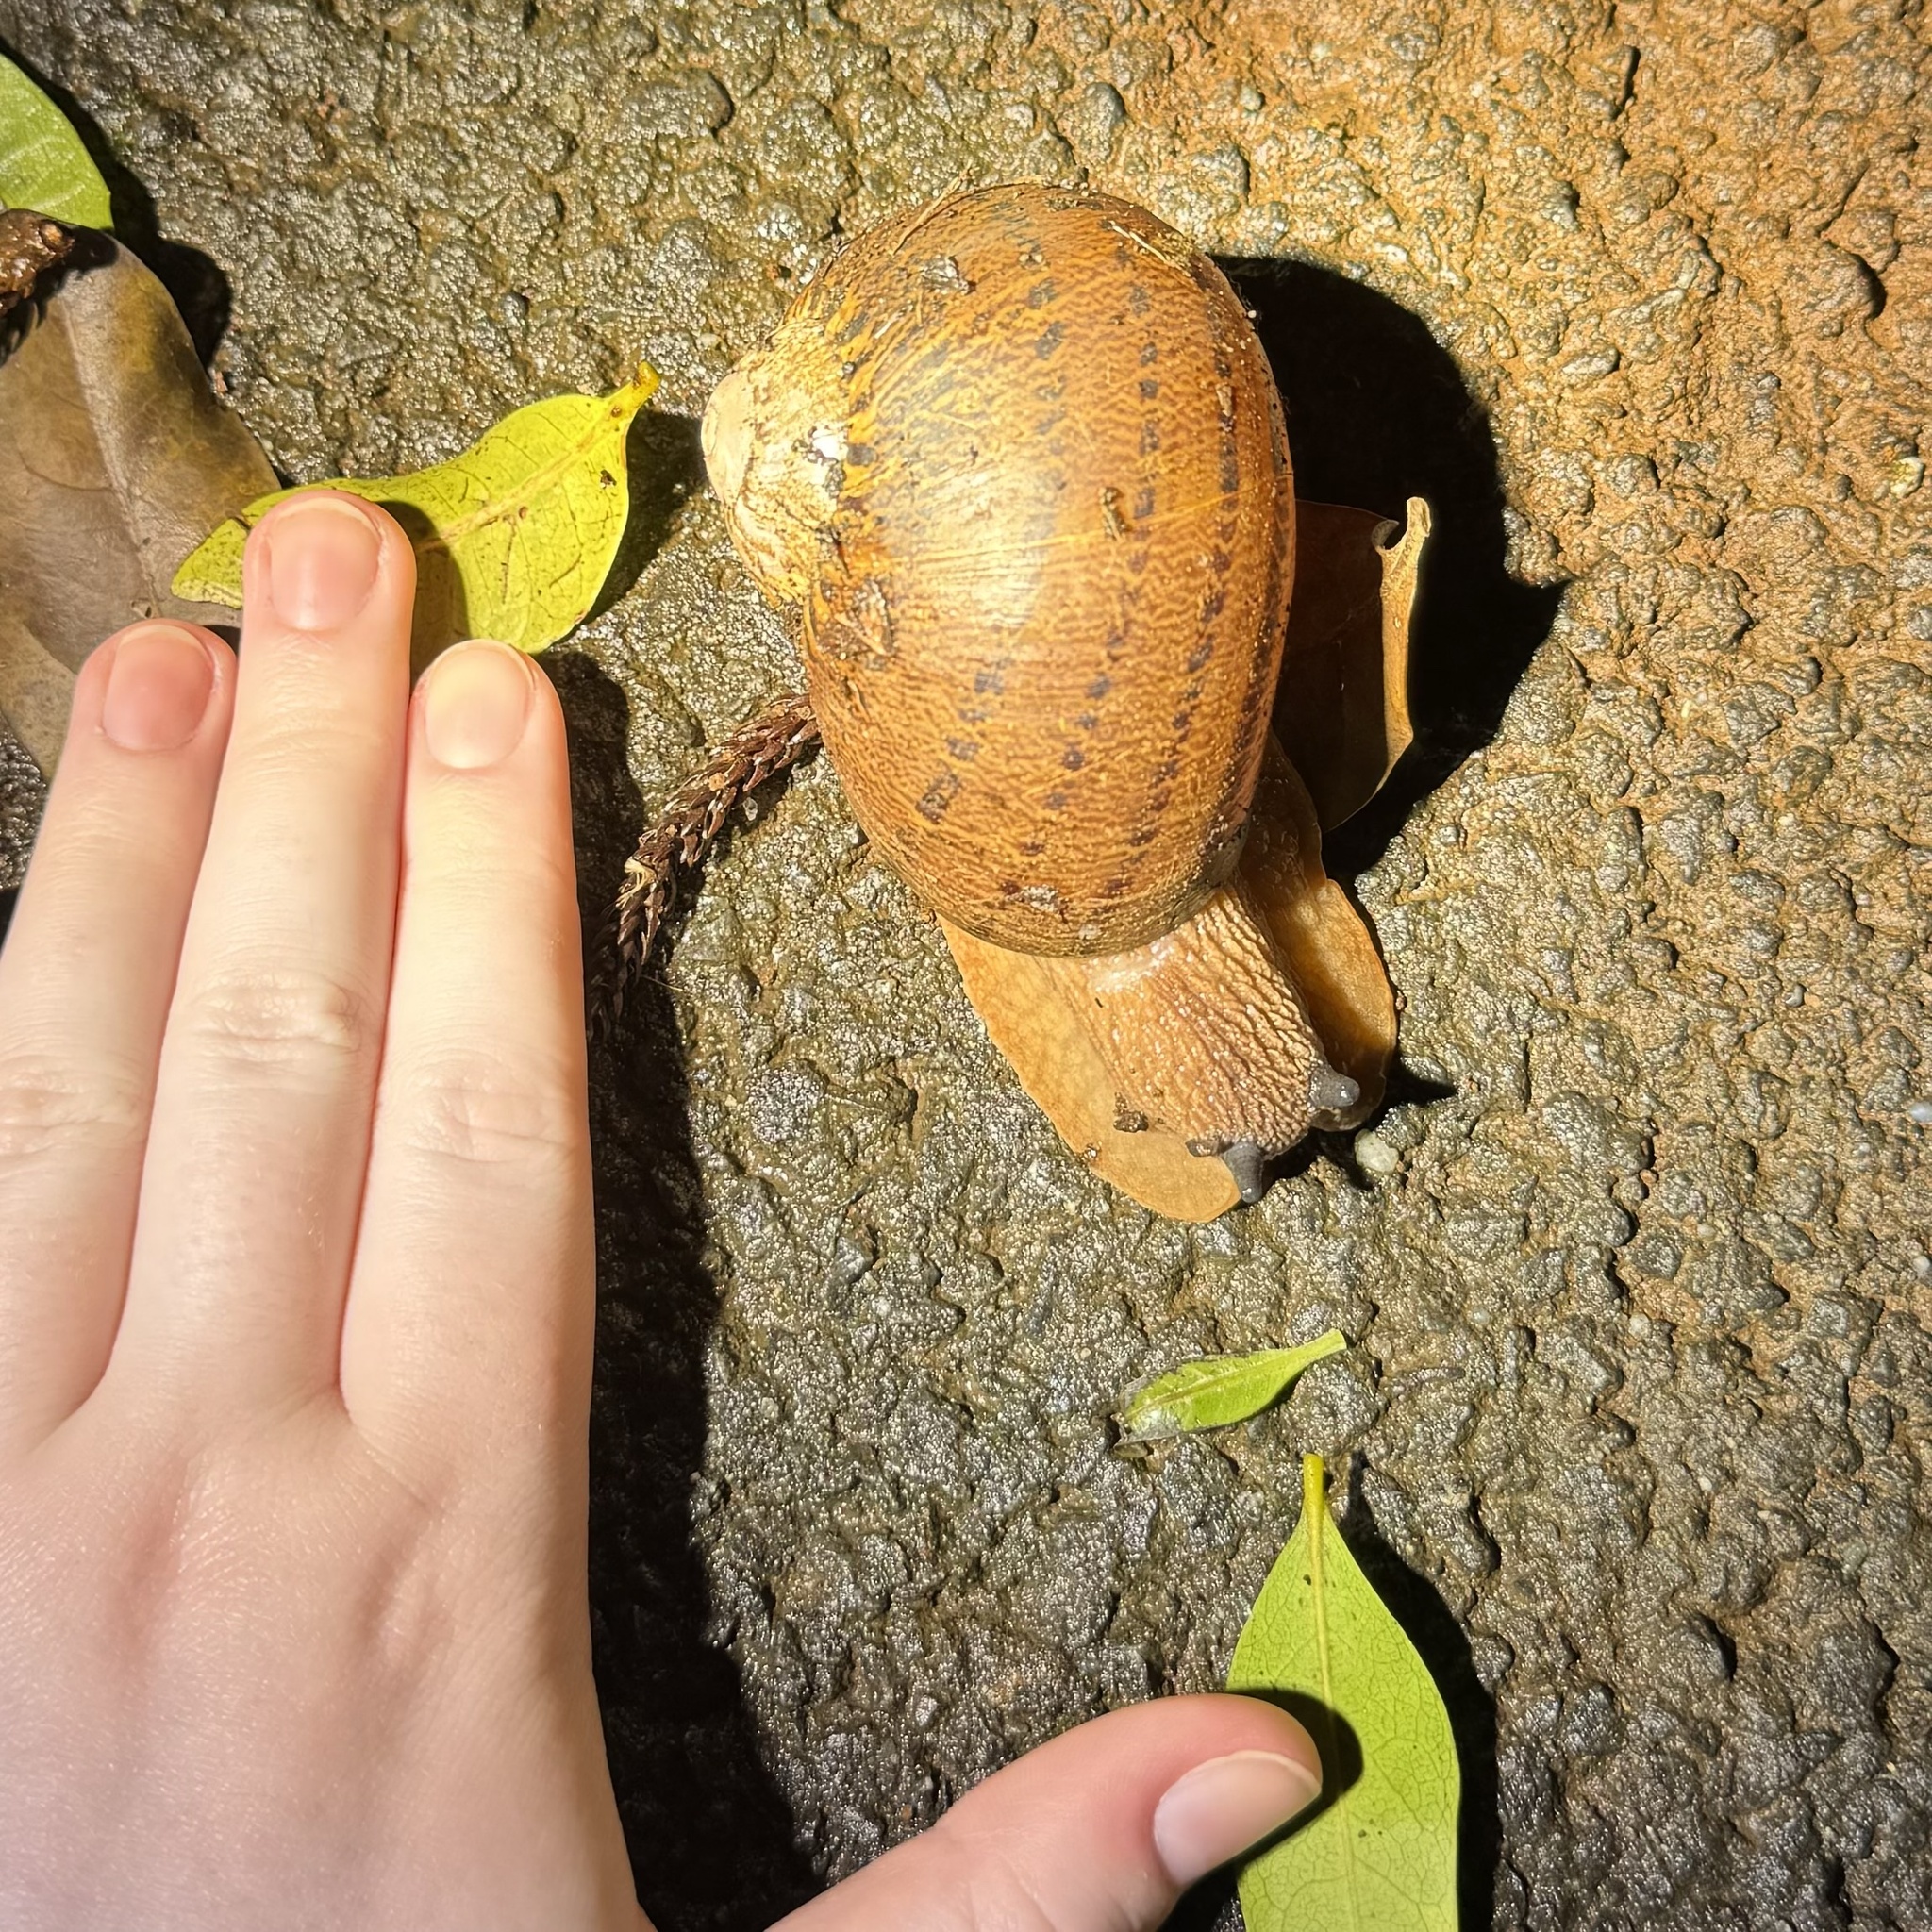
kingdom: Animalia
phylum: Mollusca
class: Gastropoda
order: Stylommatophora
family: Caryodidae
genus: Hedleyella
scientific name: Hedleyella falconeri
